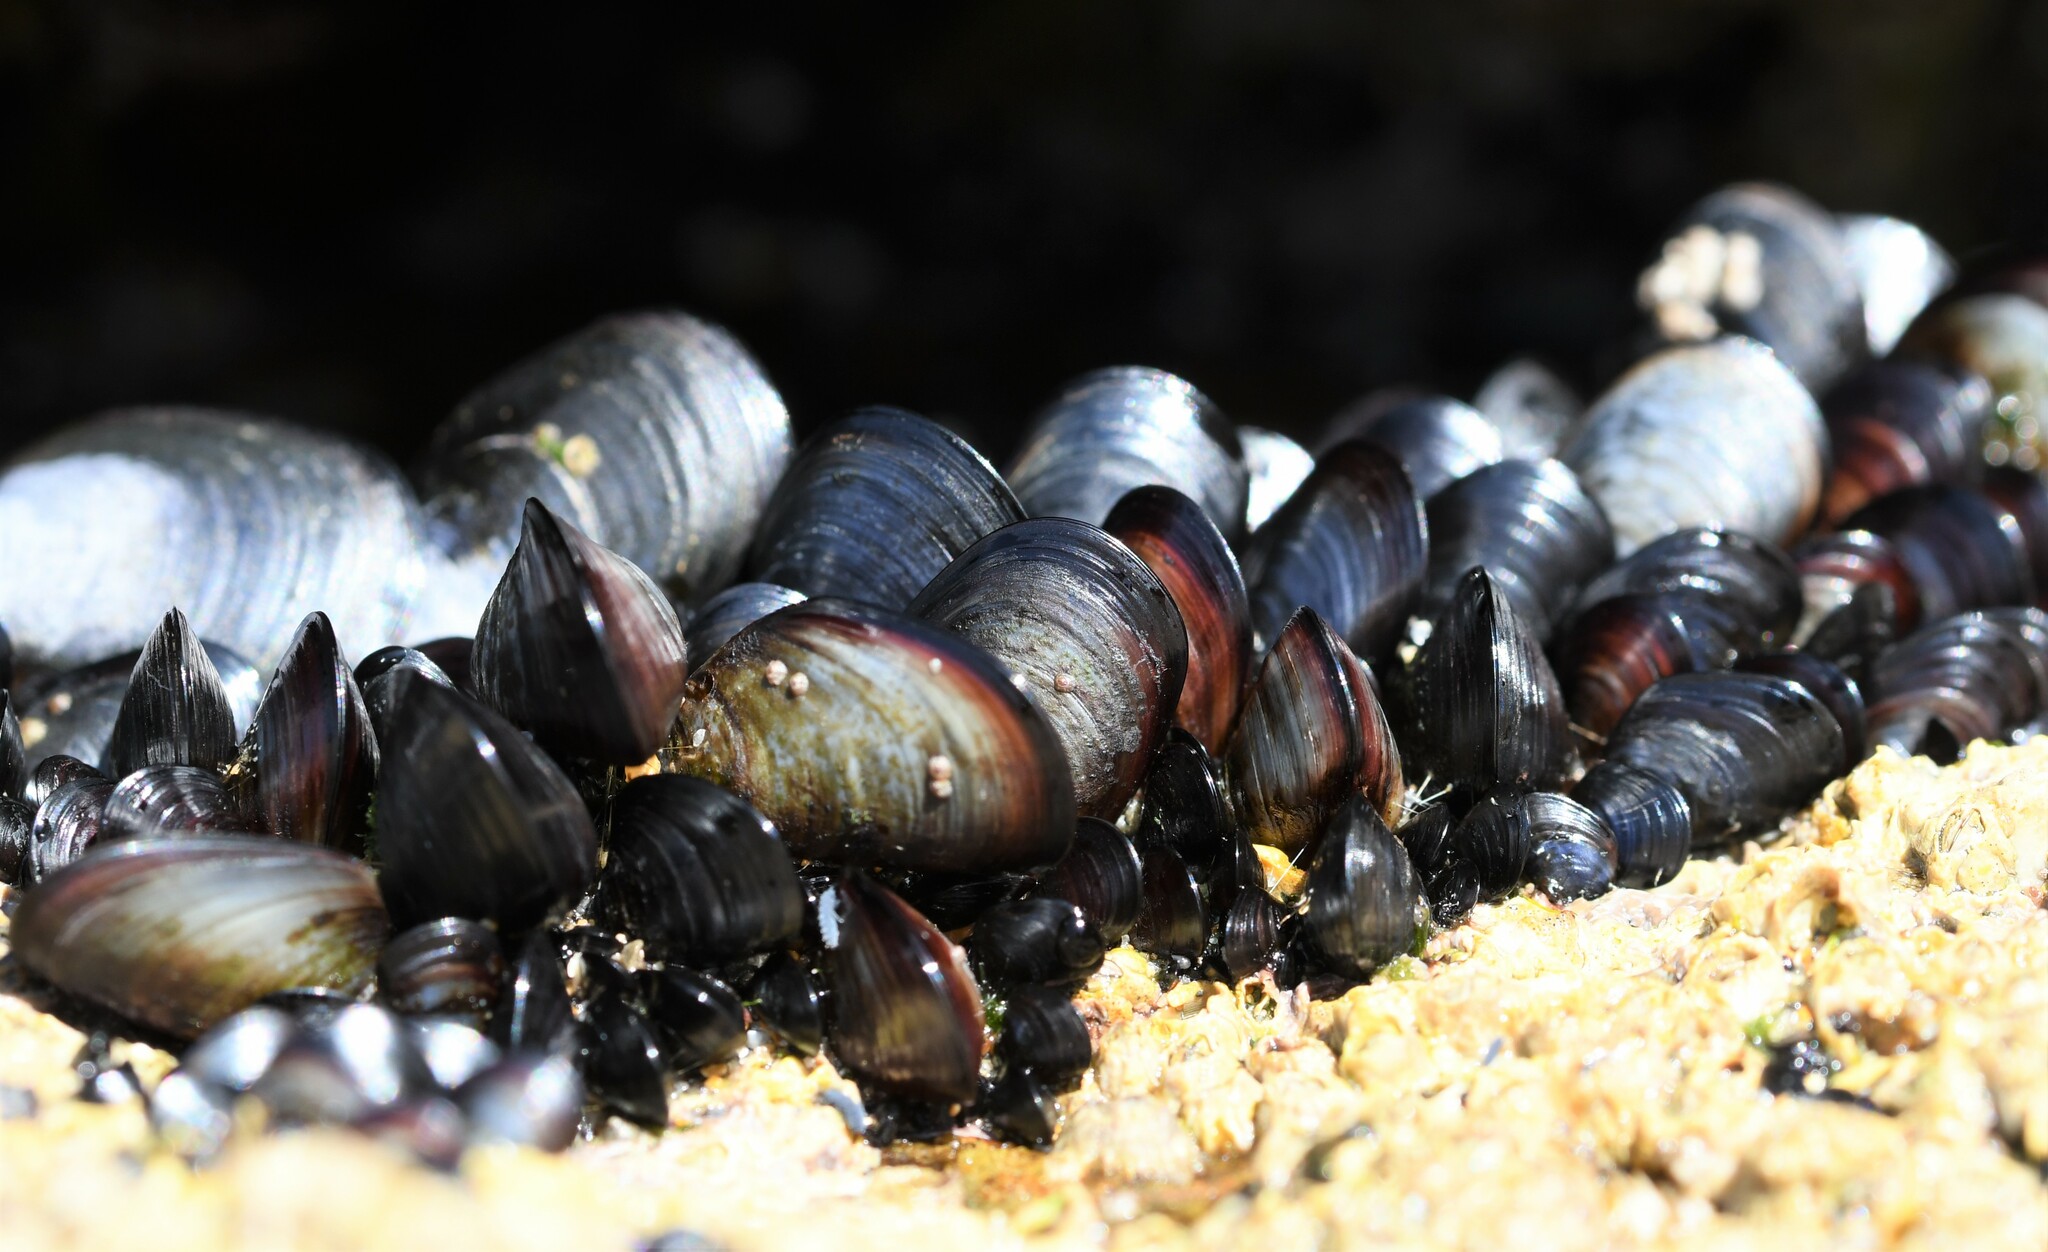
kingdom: Animalia
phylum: Mollusca
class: Bivalvia
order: Mytilida
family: Mytilidae
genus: Mytilus
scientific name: Mytilus galloprovincialis
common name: Mediterranean mussel
